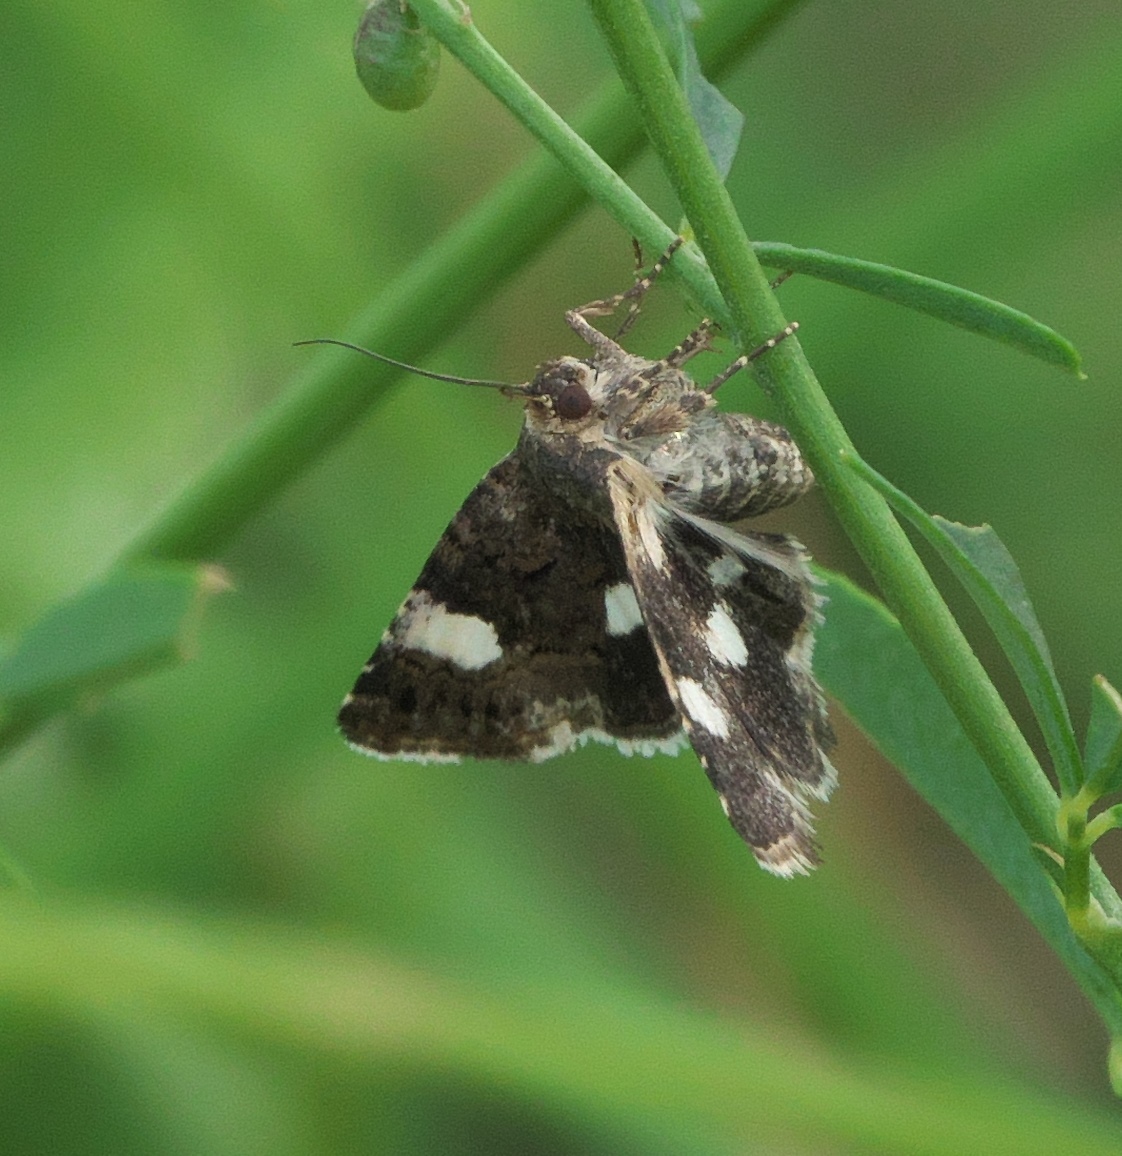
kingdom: Animalia
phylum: Arthropoda
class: Insecta
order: Lepidoptera
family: Erebidae
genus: Tyta
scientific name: Tyta luctuosa
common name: Four-spotted
